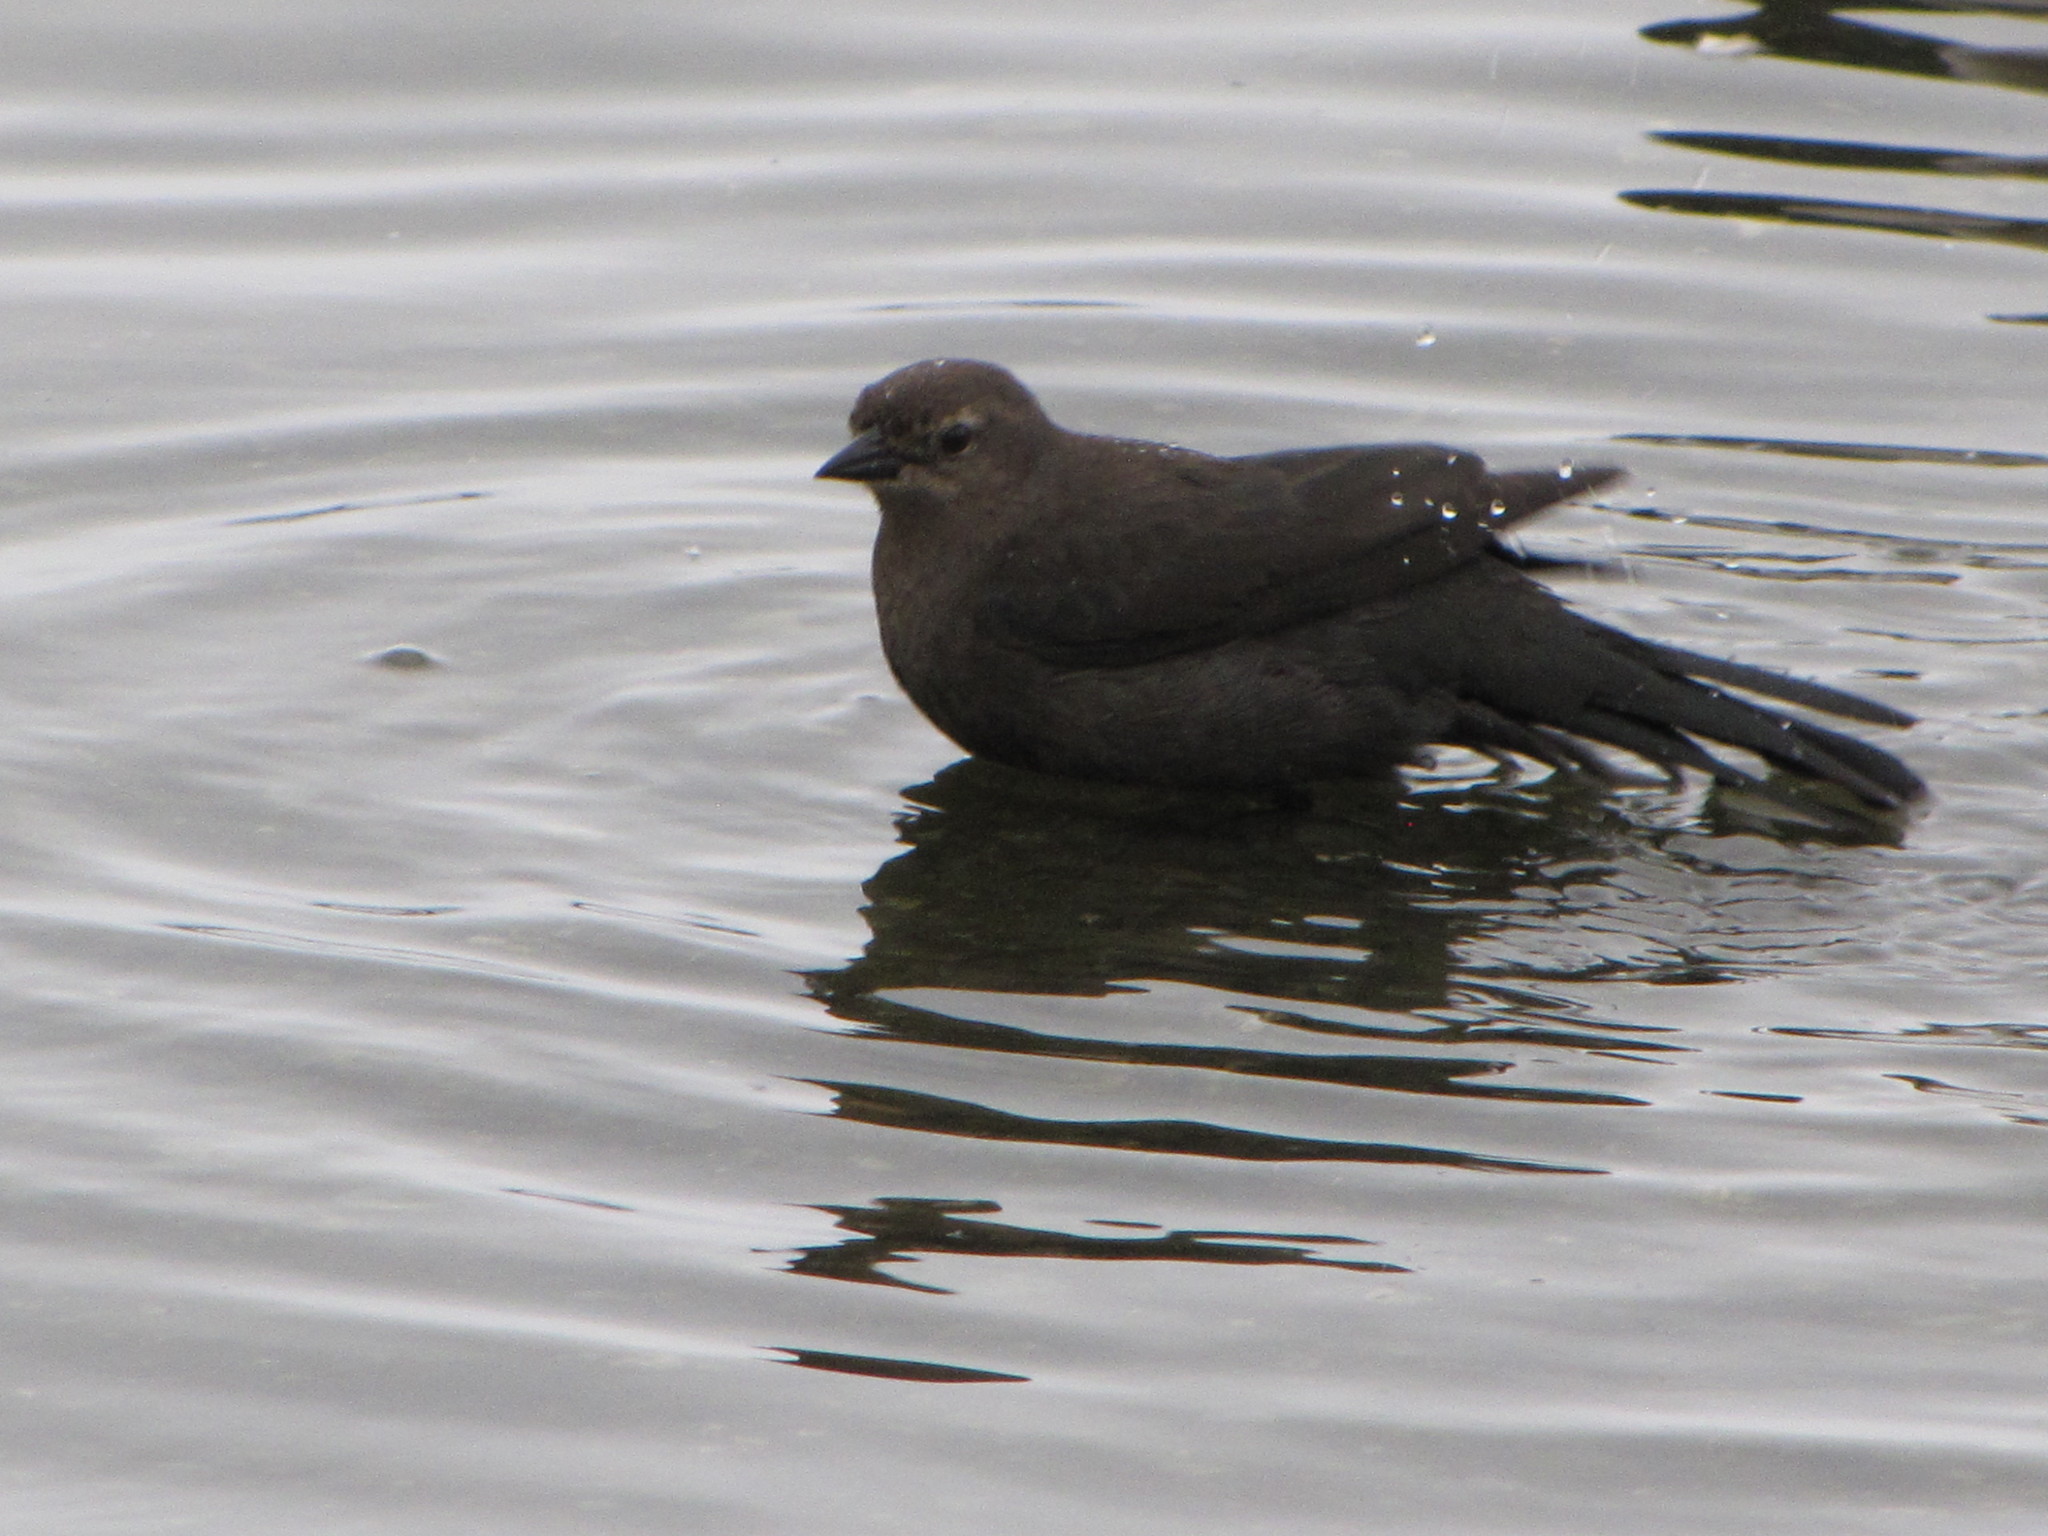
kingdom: Animalia
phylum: Chordata
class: Aves
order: Passeriformes
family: Icteridae
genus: Euphagus
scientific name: Euphagus cyanocephalus
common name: Brewer's blackbird
